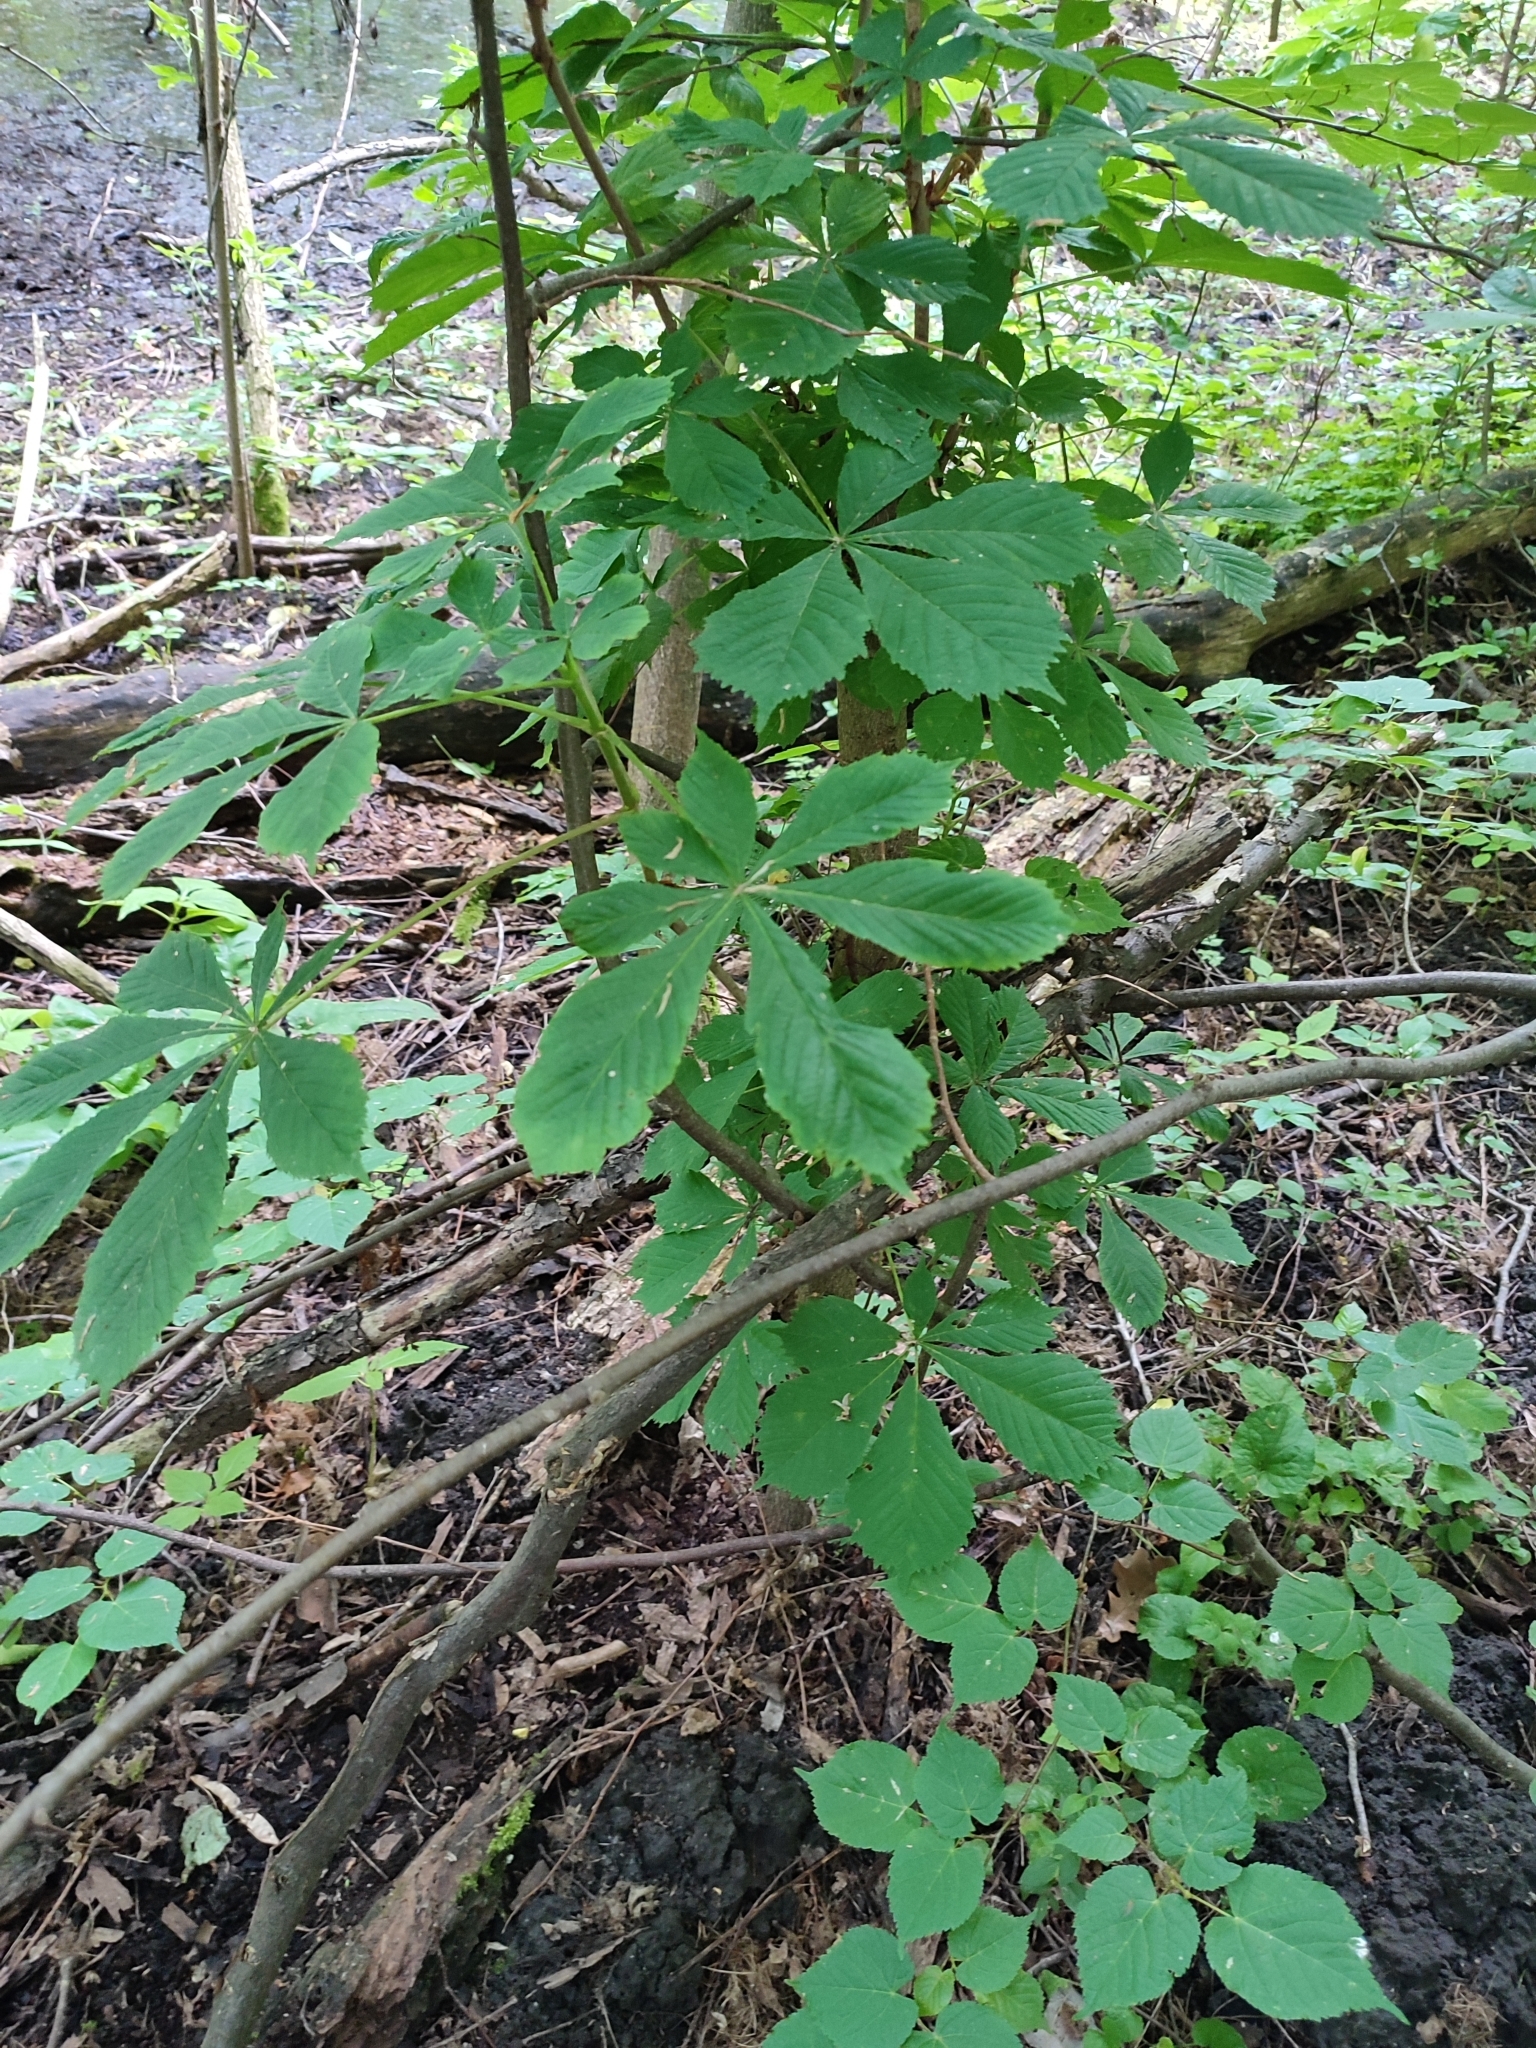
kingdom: Plantae
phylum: Tracheophyta
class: Magnoliopsida
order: Sapindales
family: Sapindaceae
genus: Aesculus
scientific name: Aesculus hippocastanum
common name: Horse-chestnut
